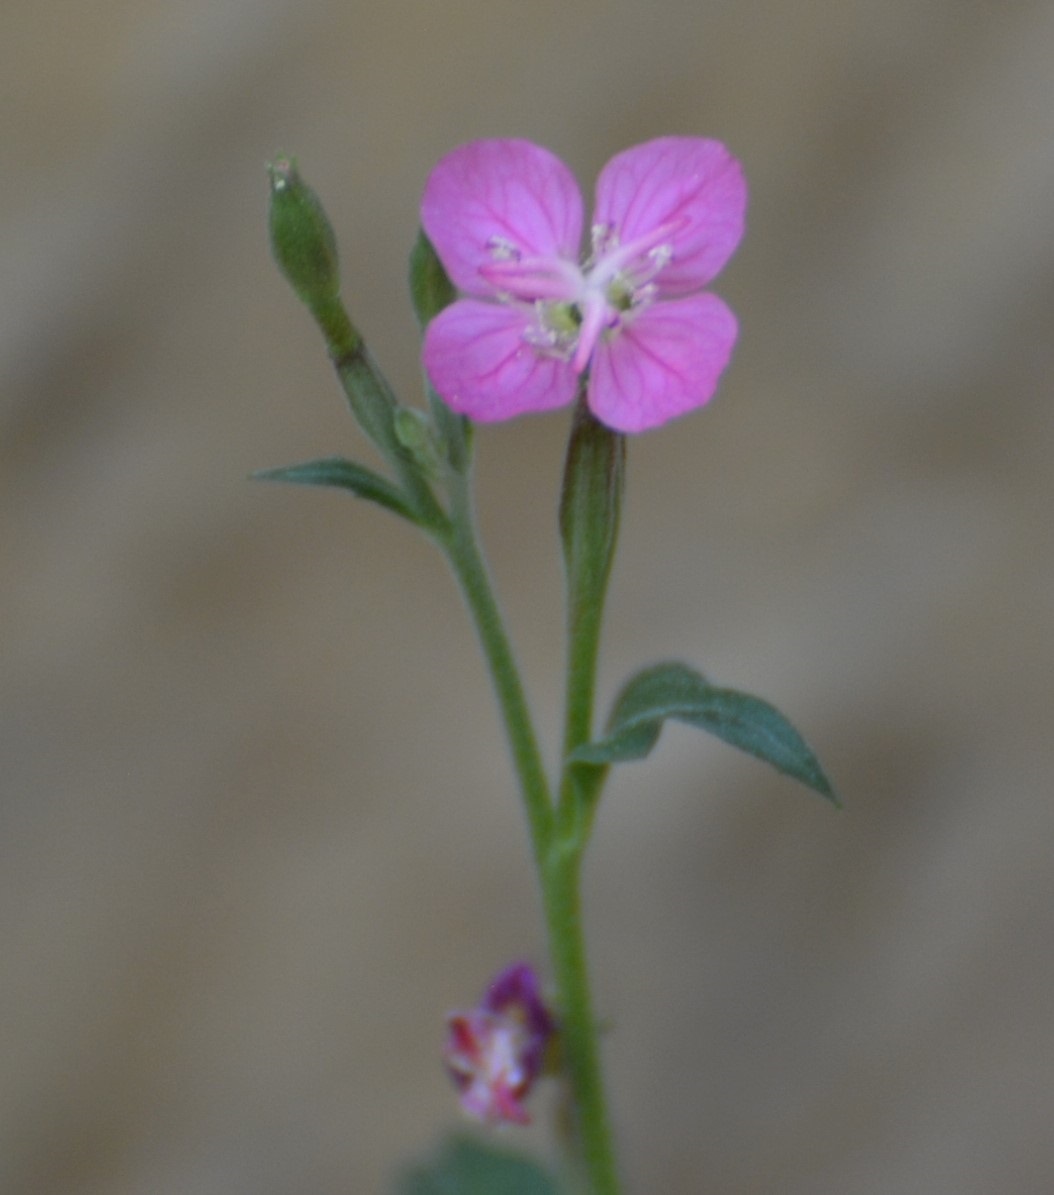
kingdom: Plantae
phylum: Tracheophyta
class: Magnoliopsida
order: Myrtales
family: Onagraceae
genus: Oenothera
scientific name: Oenothera rosea
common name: Rosy evening-primrose
